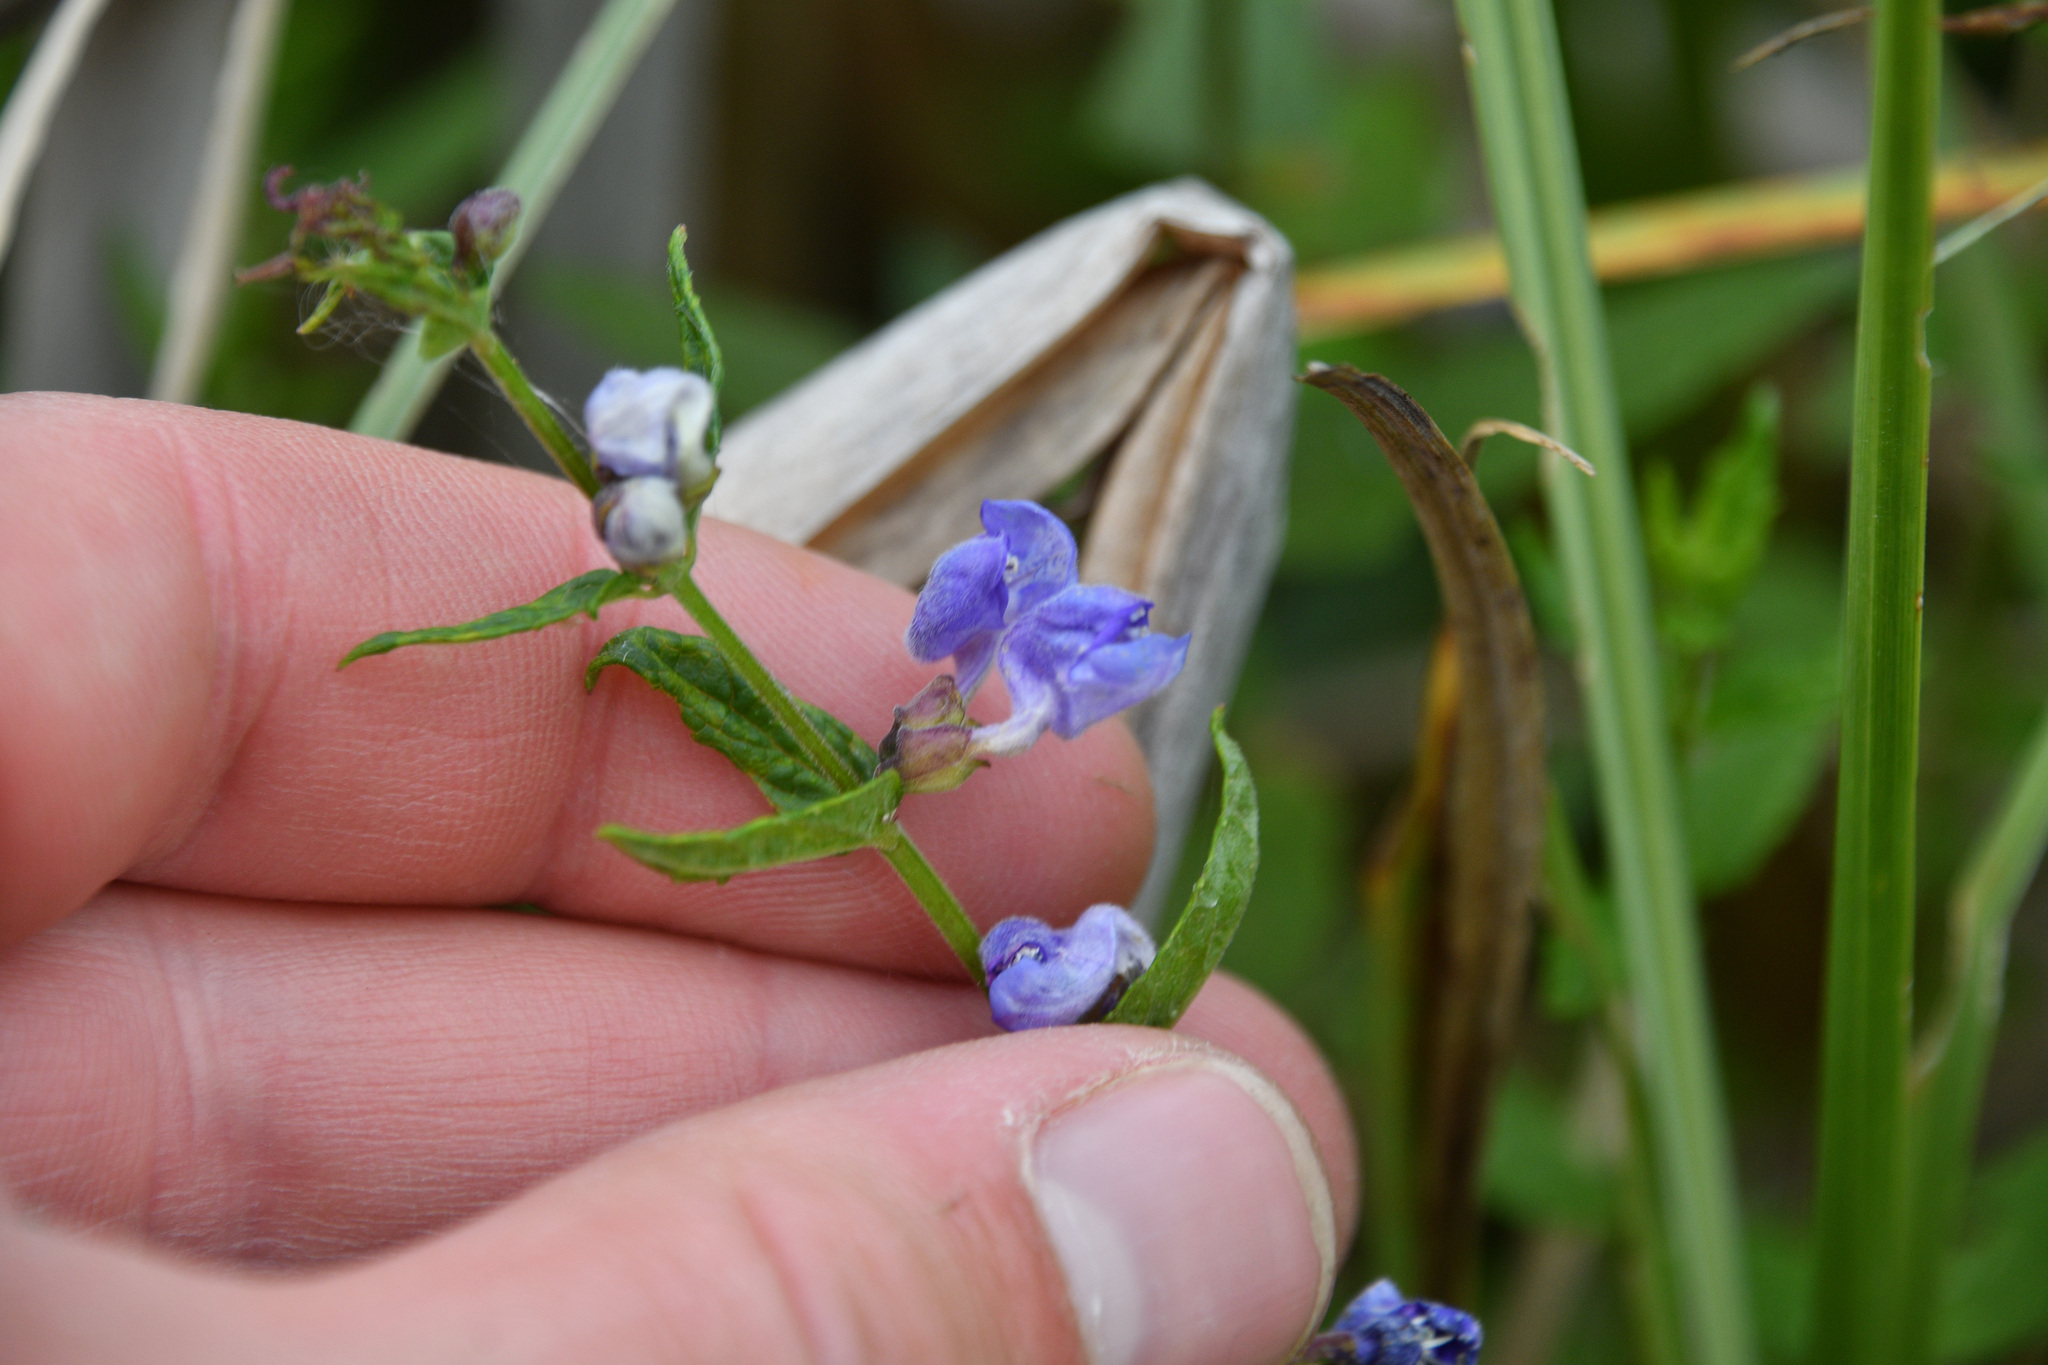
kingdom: Plantae
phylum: Tracheophyta
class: Magnoliopsida
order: Lamiales
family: Lamiaceae
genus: Scutellaria
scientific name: Scutellaria galericulata
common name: Skullcap
